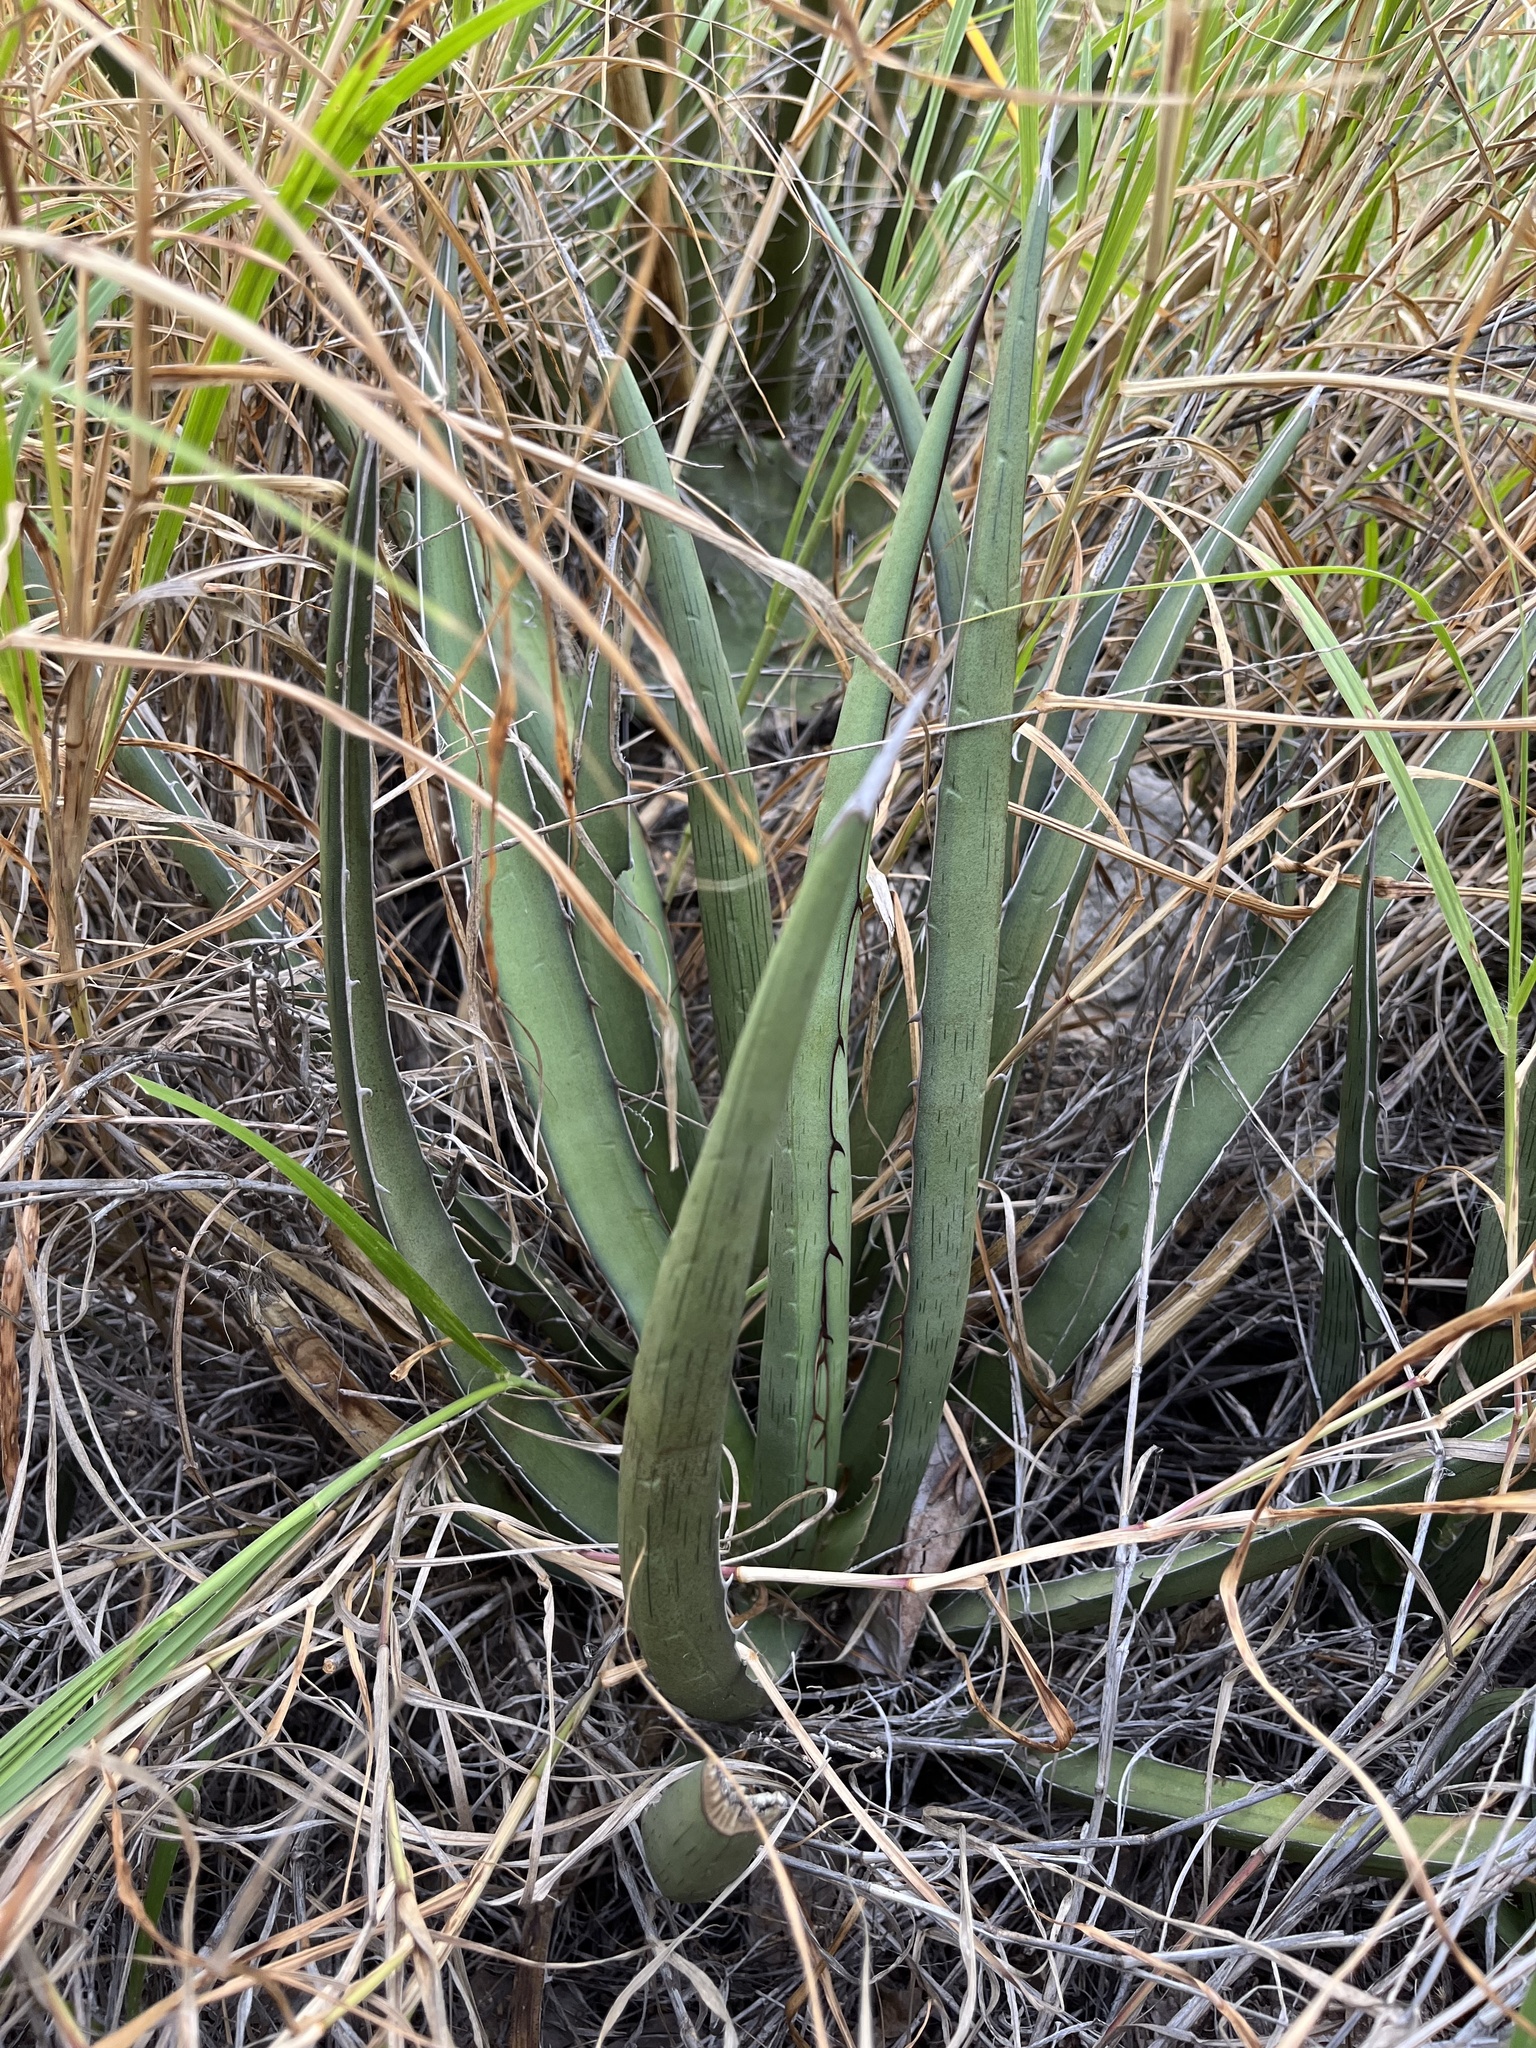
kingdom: Plantae
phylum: Tracheophyta
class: Liliopsida
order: Asparagales
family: Asparagaceae
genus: Agave
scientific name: Agave lechuguilla
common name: Lecheguilla agave
